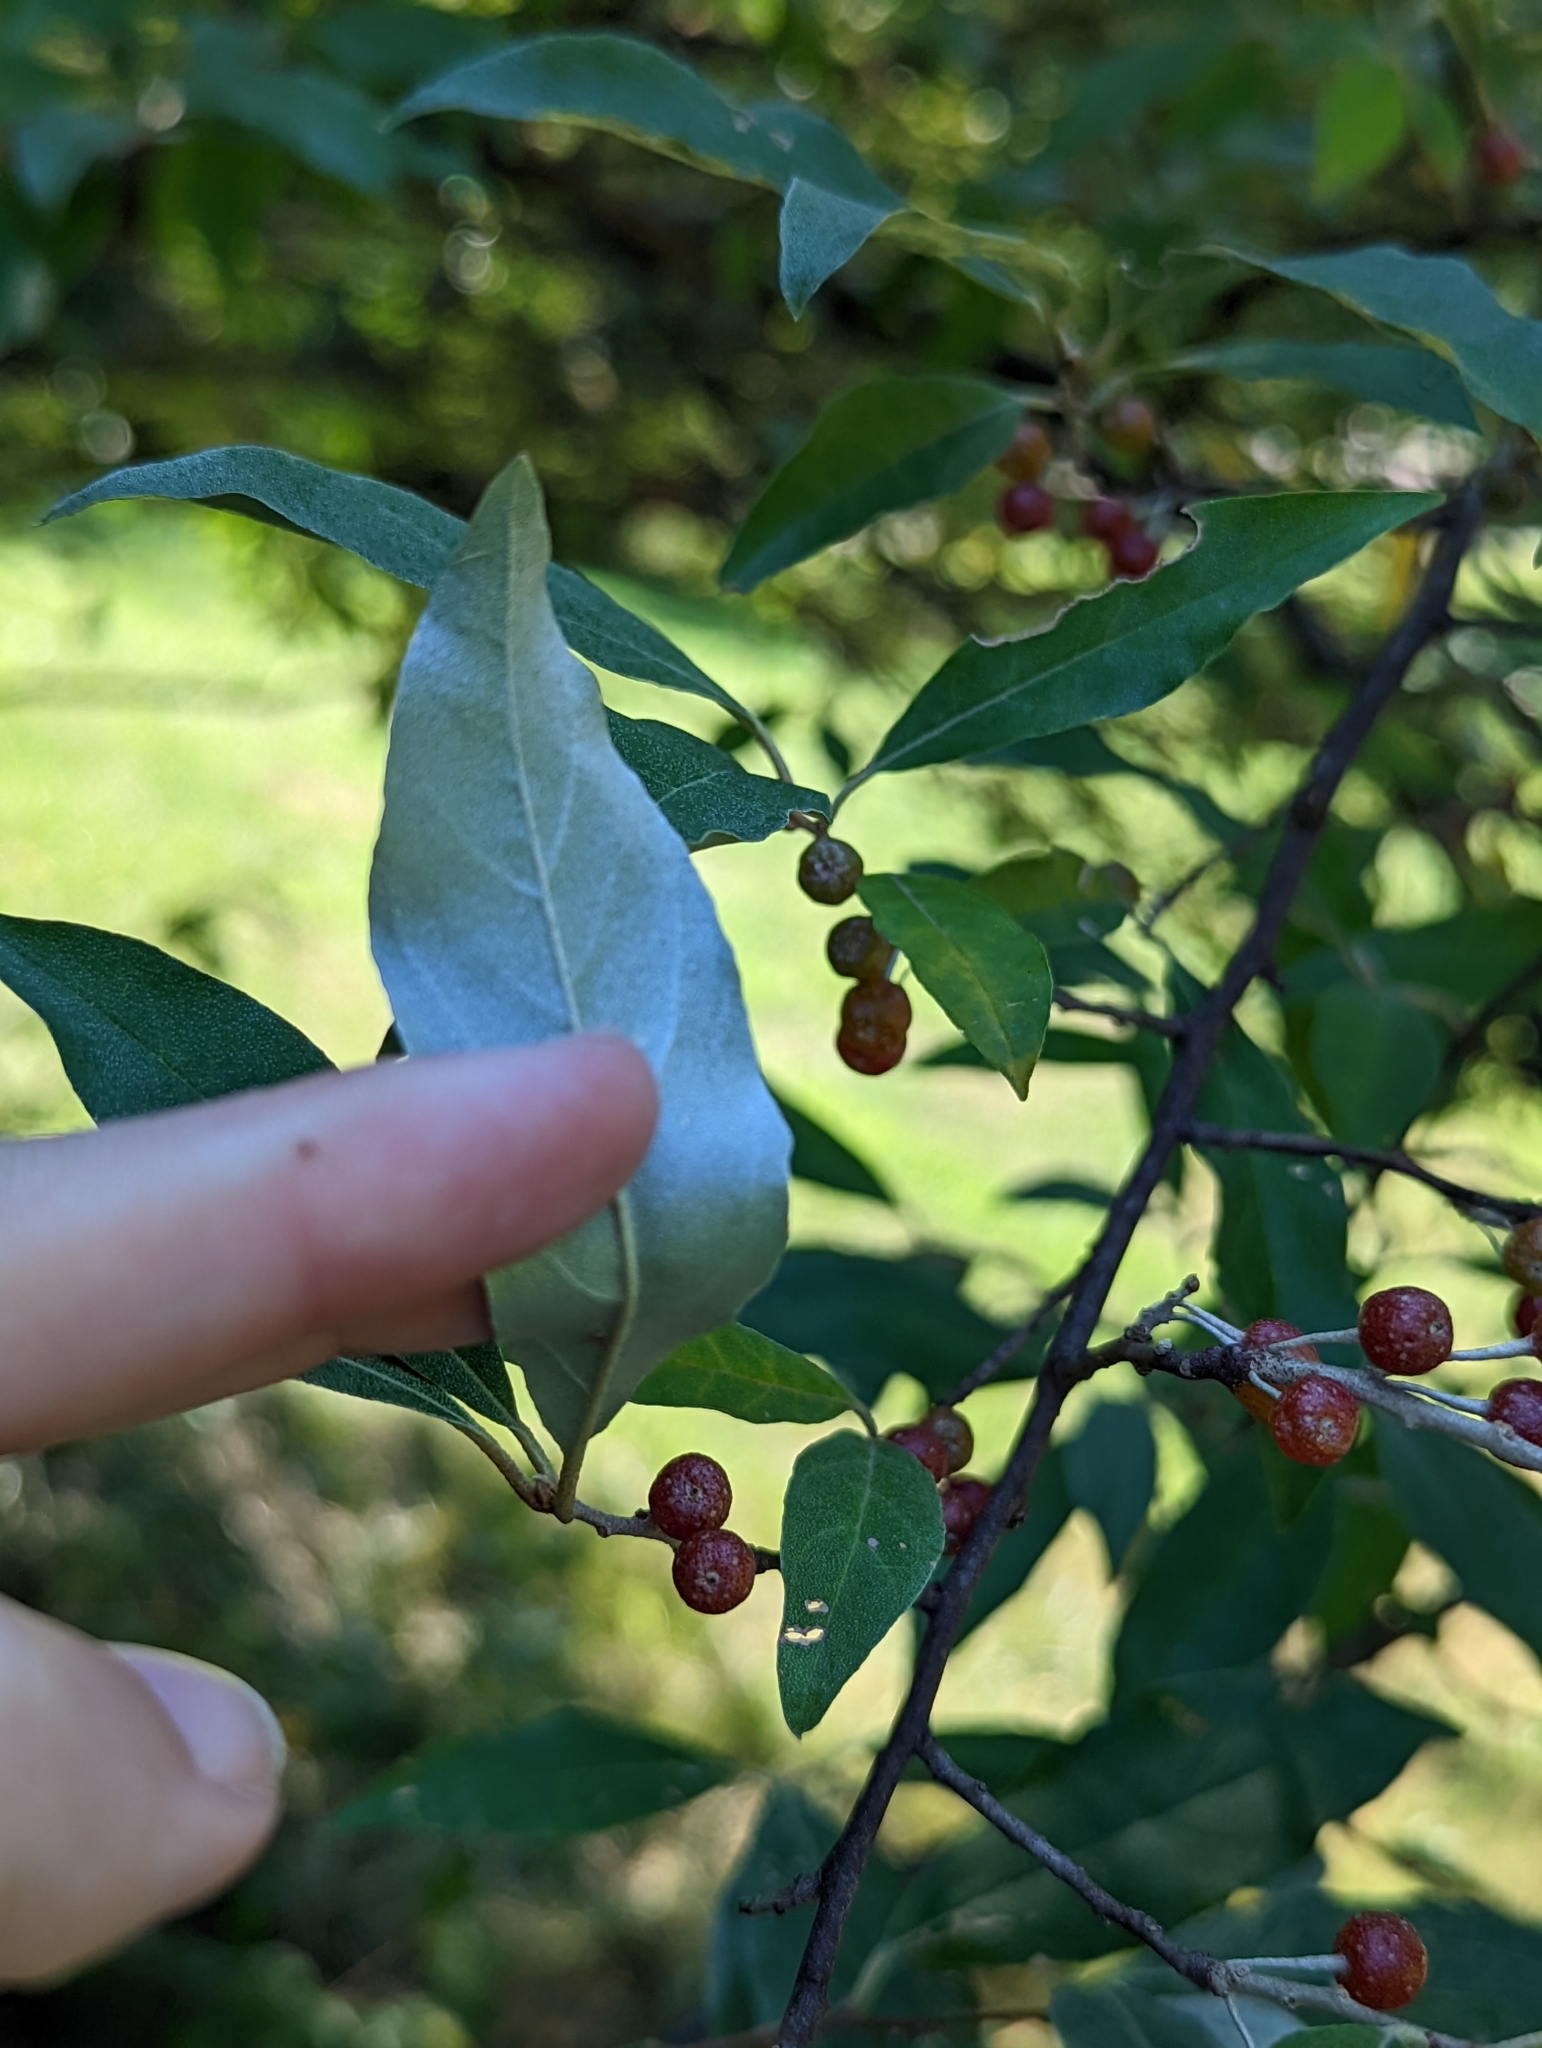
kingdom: Plantae
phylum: Tracheophyta
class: Magnoliopsida
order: Rosales
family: Elaeagnaceae
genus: Elaeagnus
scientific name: Elaeagnus umbellata
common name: Autumn olive
